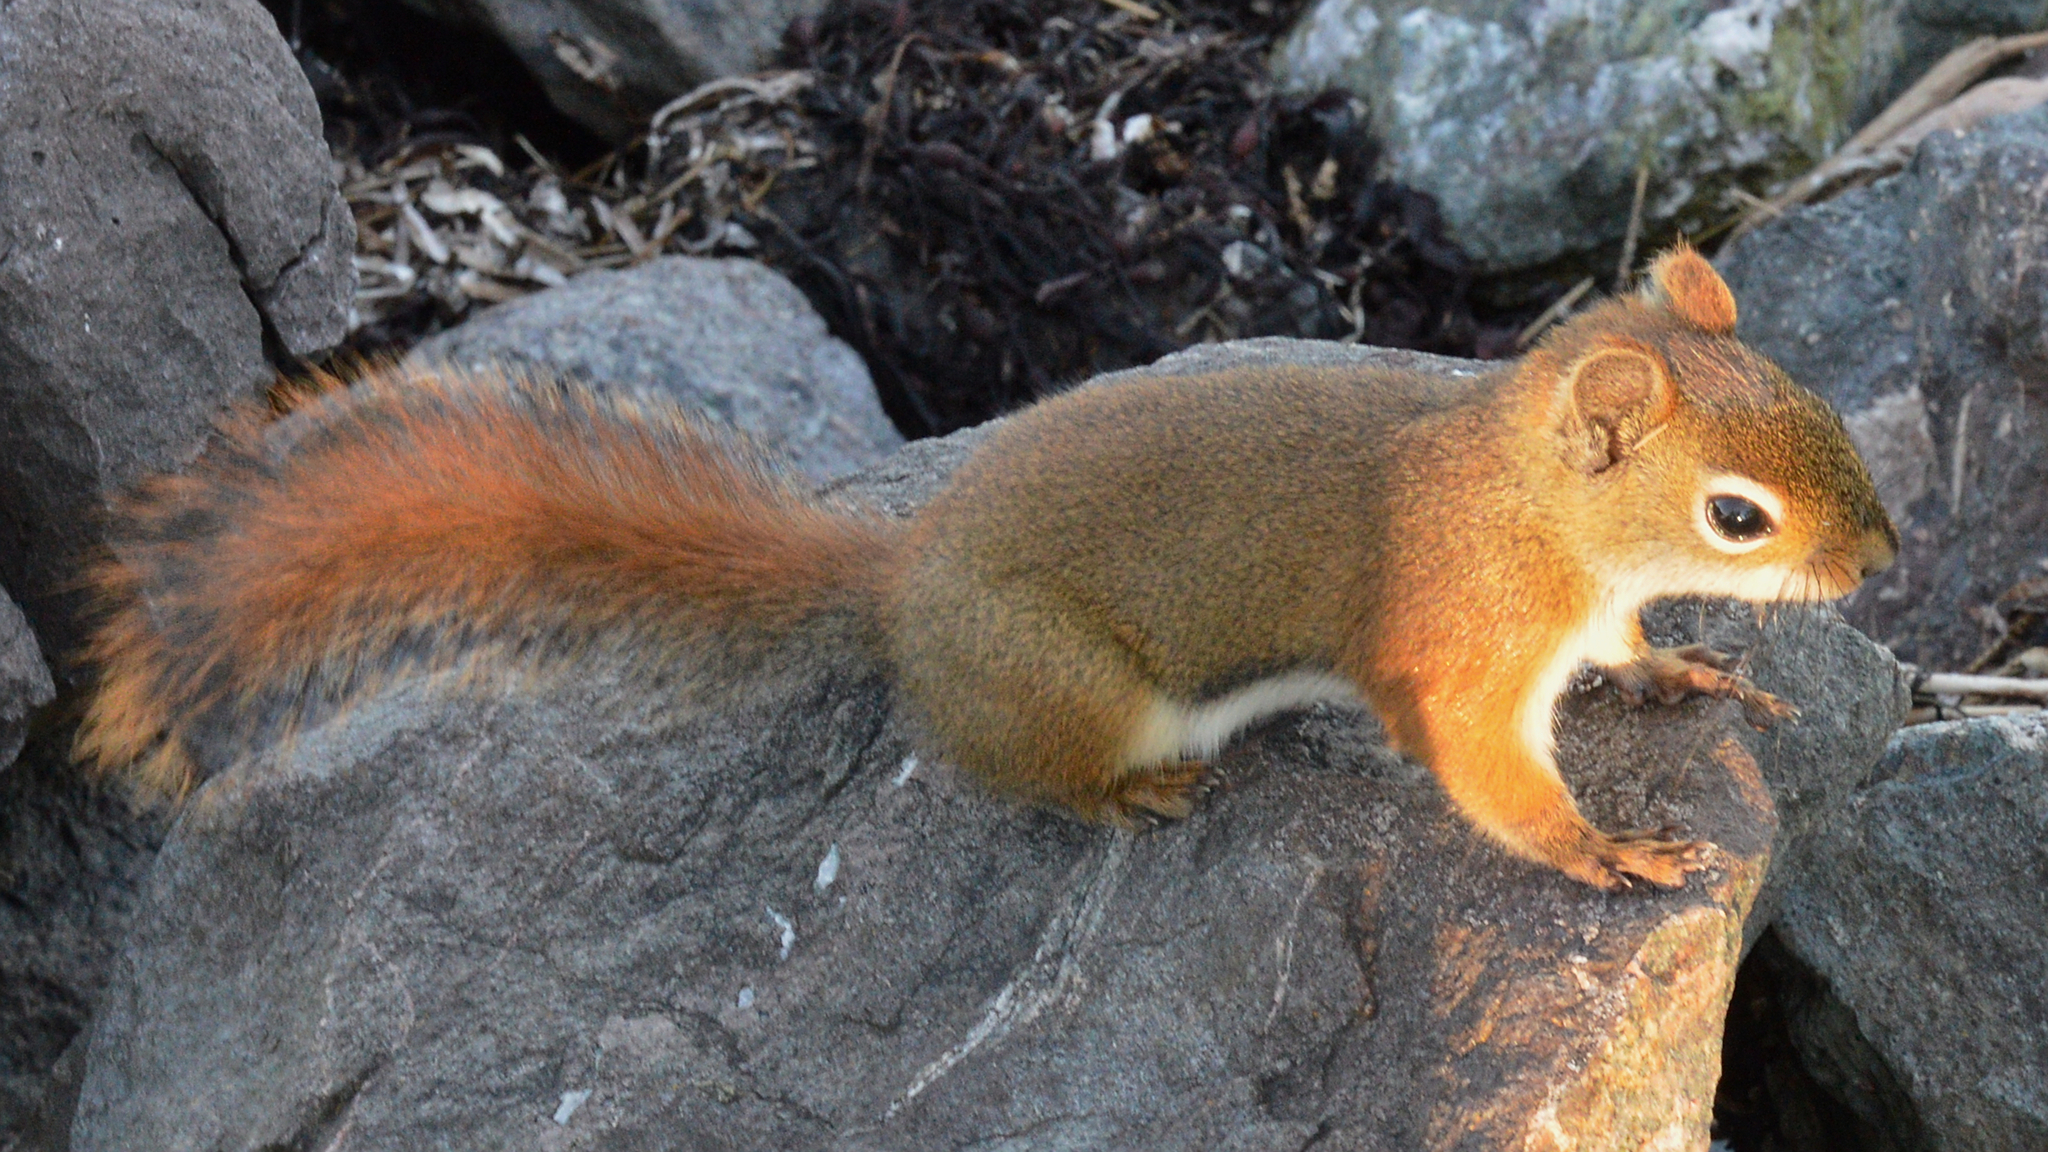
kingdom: Animalia
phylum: Chordata
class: Mammalia
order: Rodentia
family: Sciuridae
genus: Tamiasciurus
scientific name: Tamiasciurus hudsonicus
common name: Red squirrel
